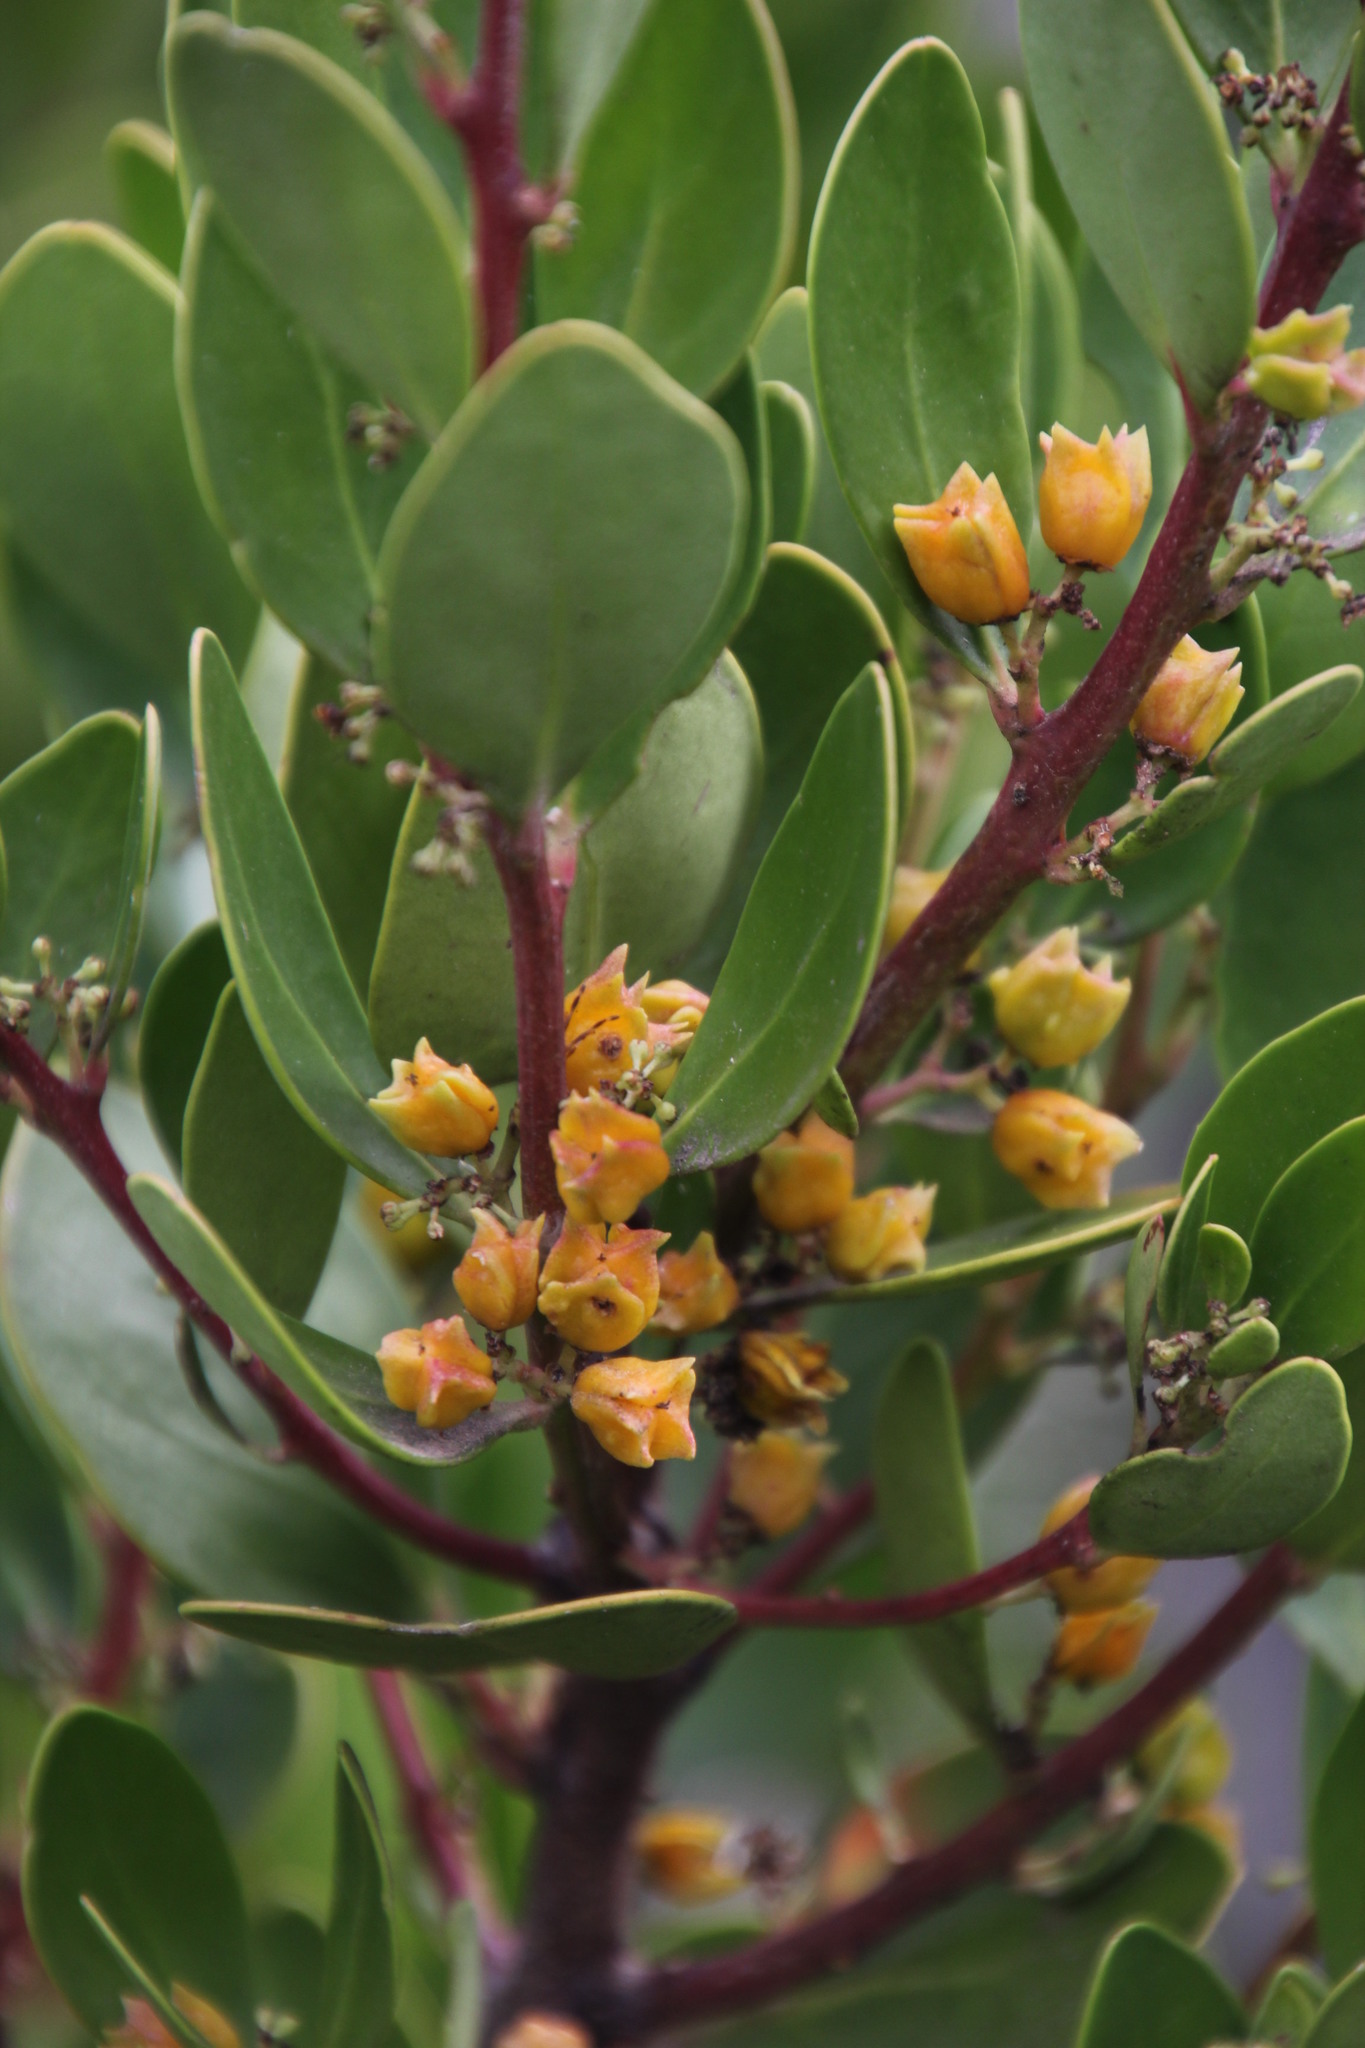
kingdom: Plantae
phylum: Tracheophyta
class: Magnoliopsida
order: Celastrales
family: Celastraceae
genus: Pterocelastrus
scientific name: Pterocelastrus tricuspidatus
